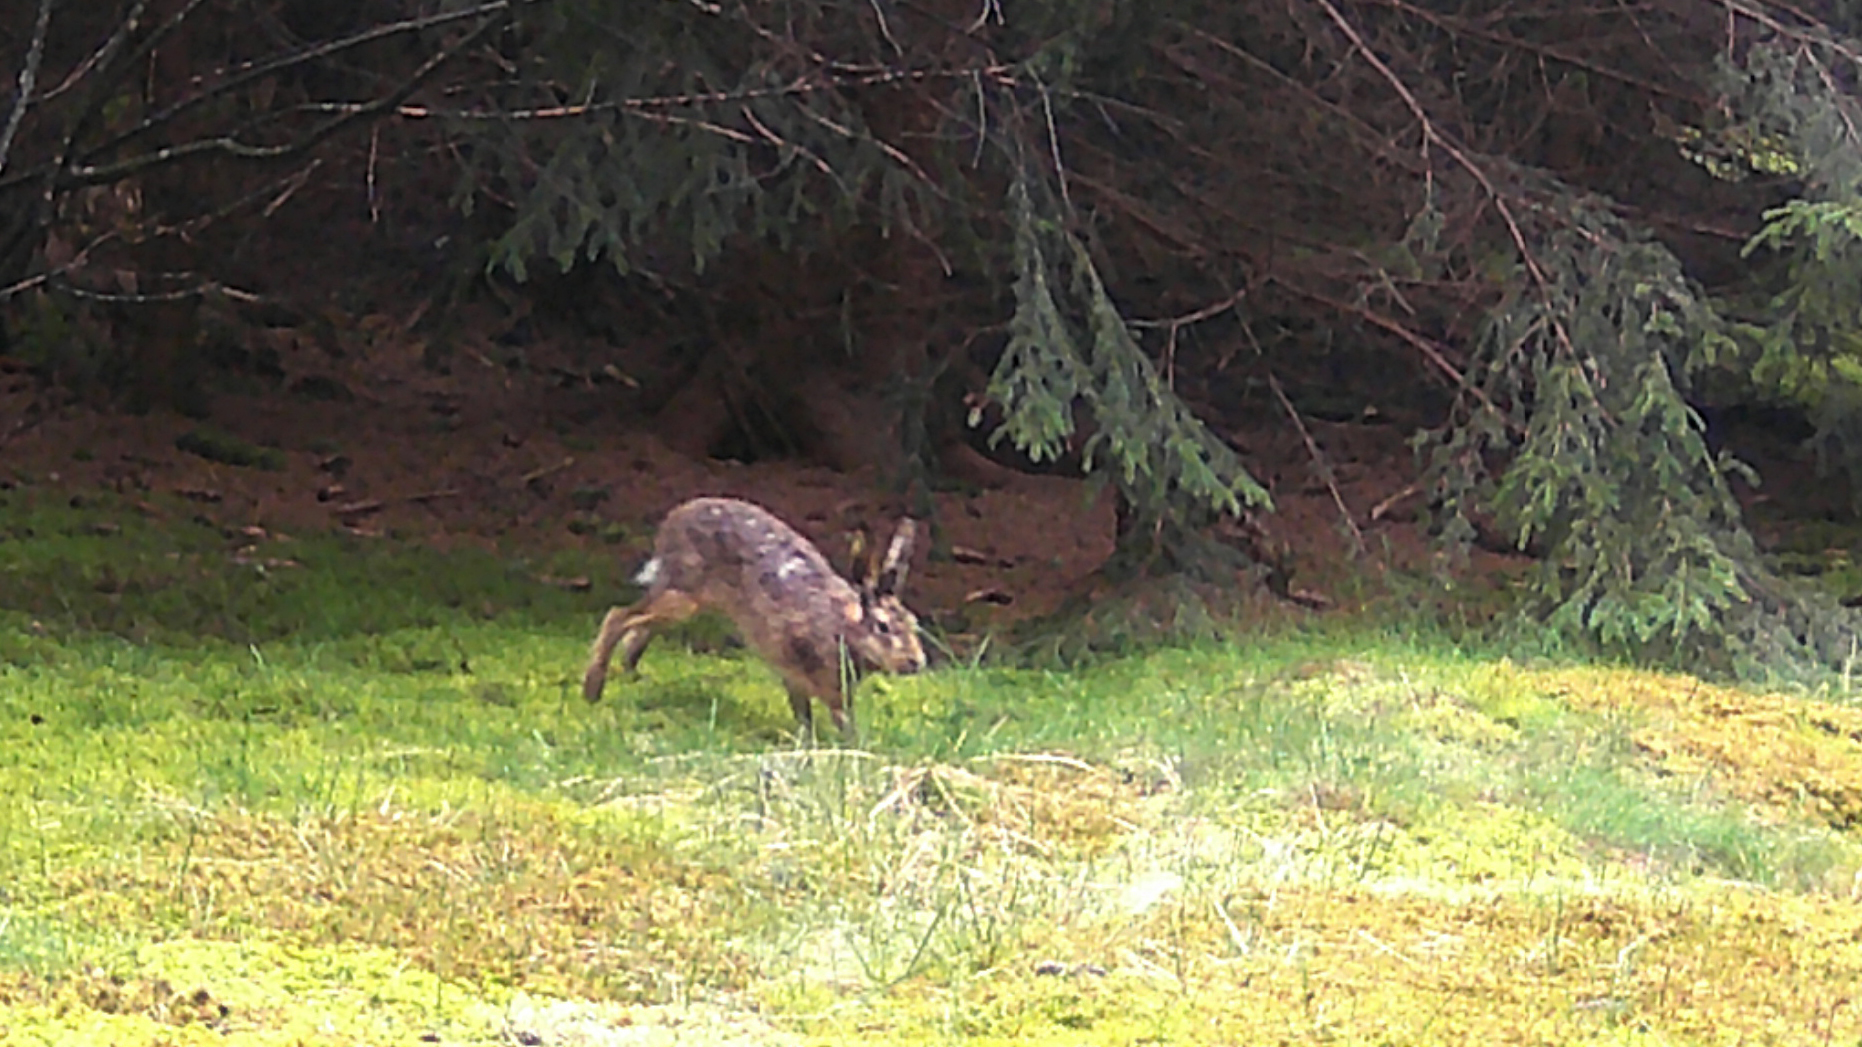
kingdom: Animalia
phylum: Chordata
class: Mammalia
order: Lagomorpha
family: Leporidae
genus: Lepus
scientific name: Lepus europaeus
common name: European hare
